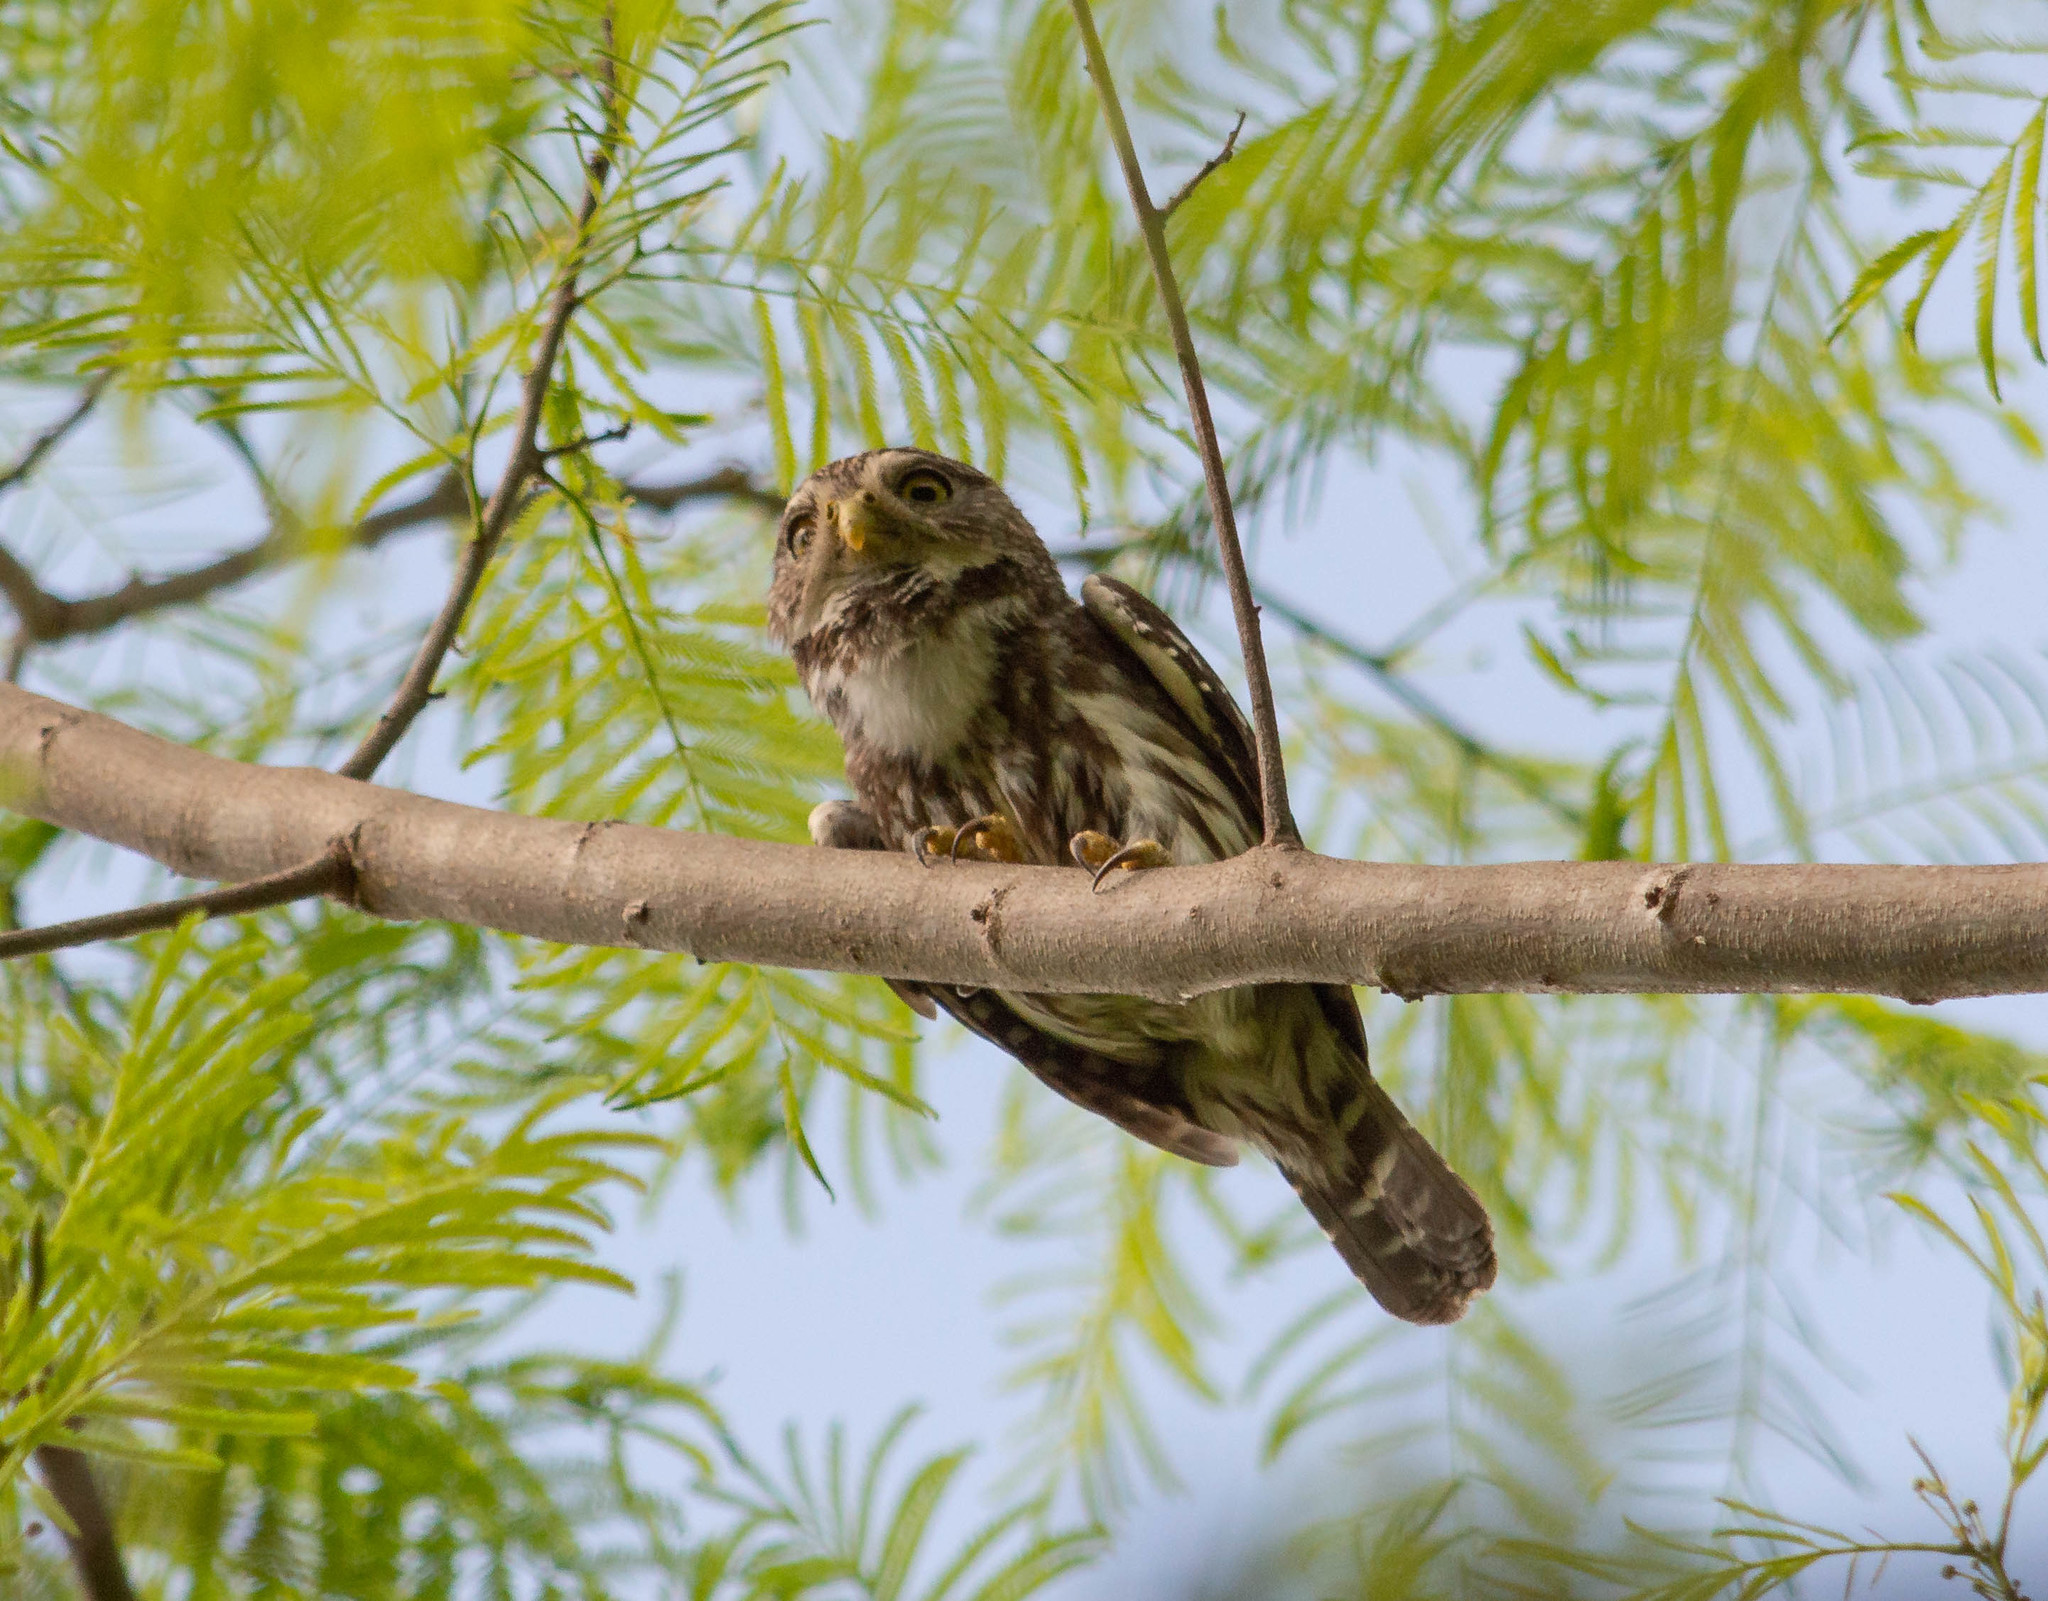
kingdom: Animalia
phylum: Chordata
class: Aves
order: Strigiformes
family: Strigidae
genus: Glaucidium
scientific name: Glaucidium brasilianum
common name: Ferruginous pygmy-owl
